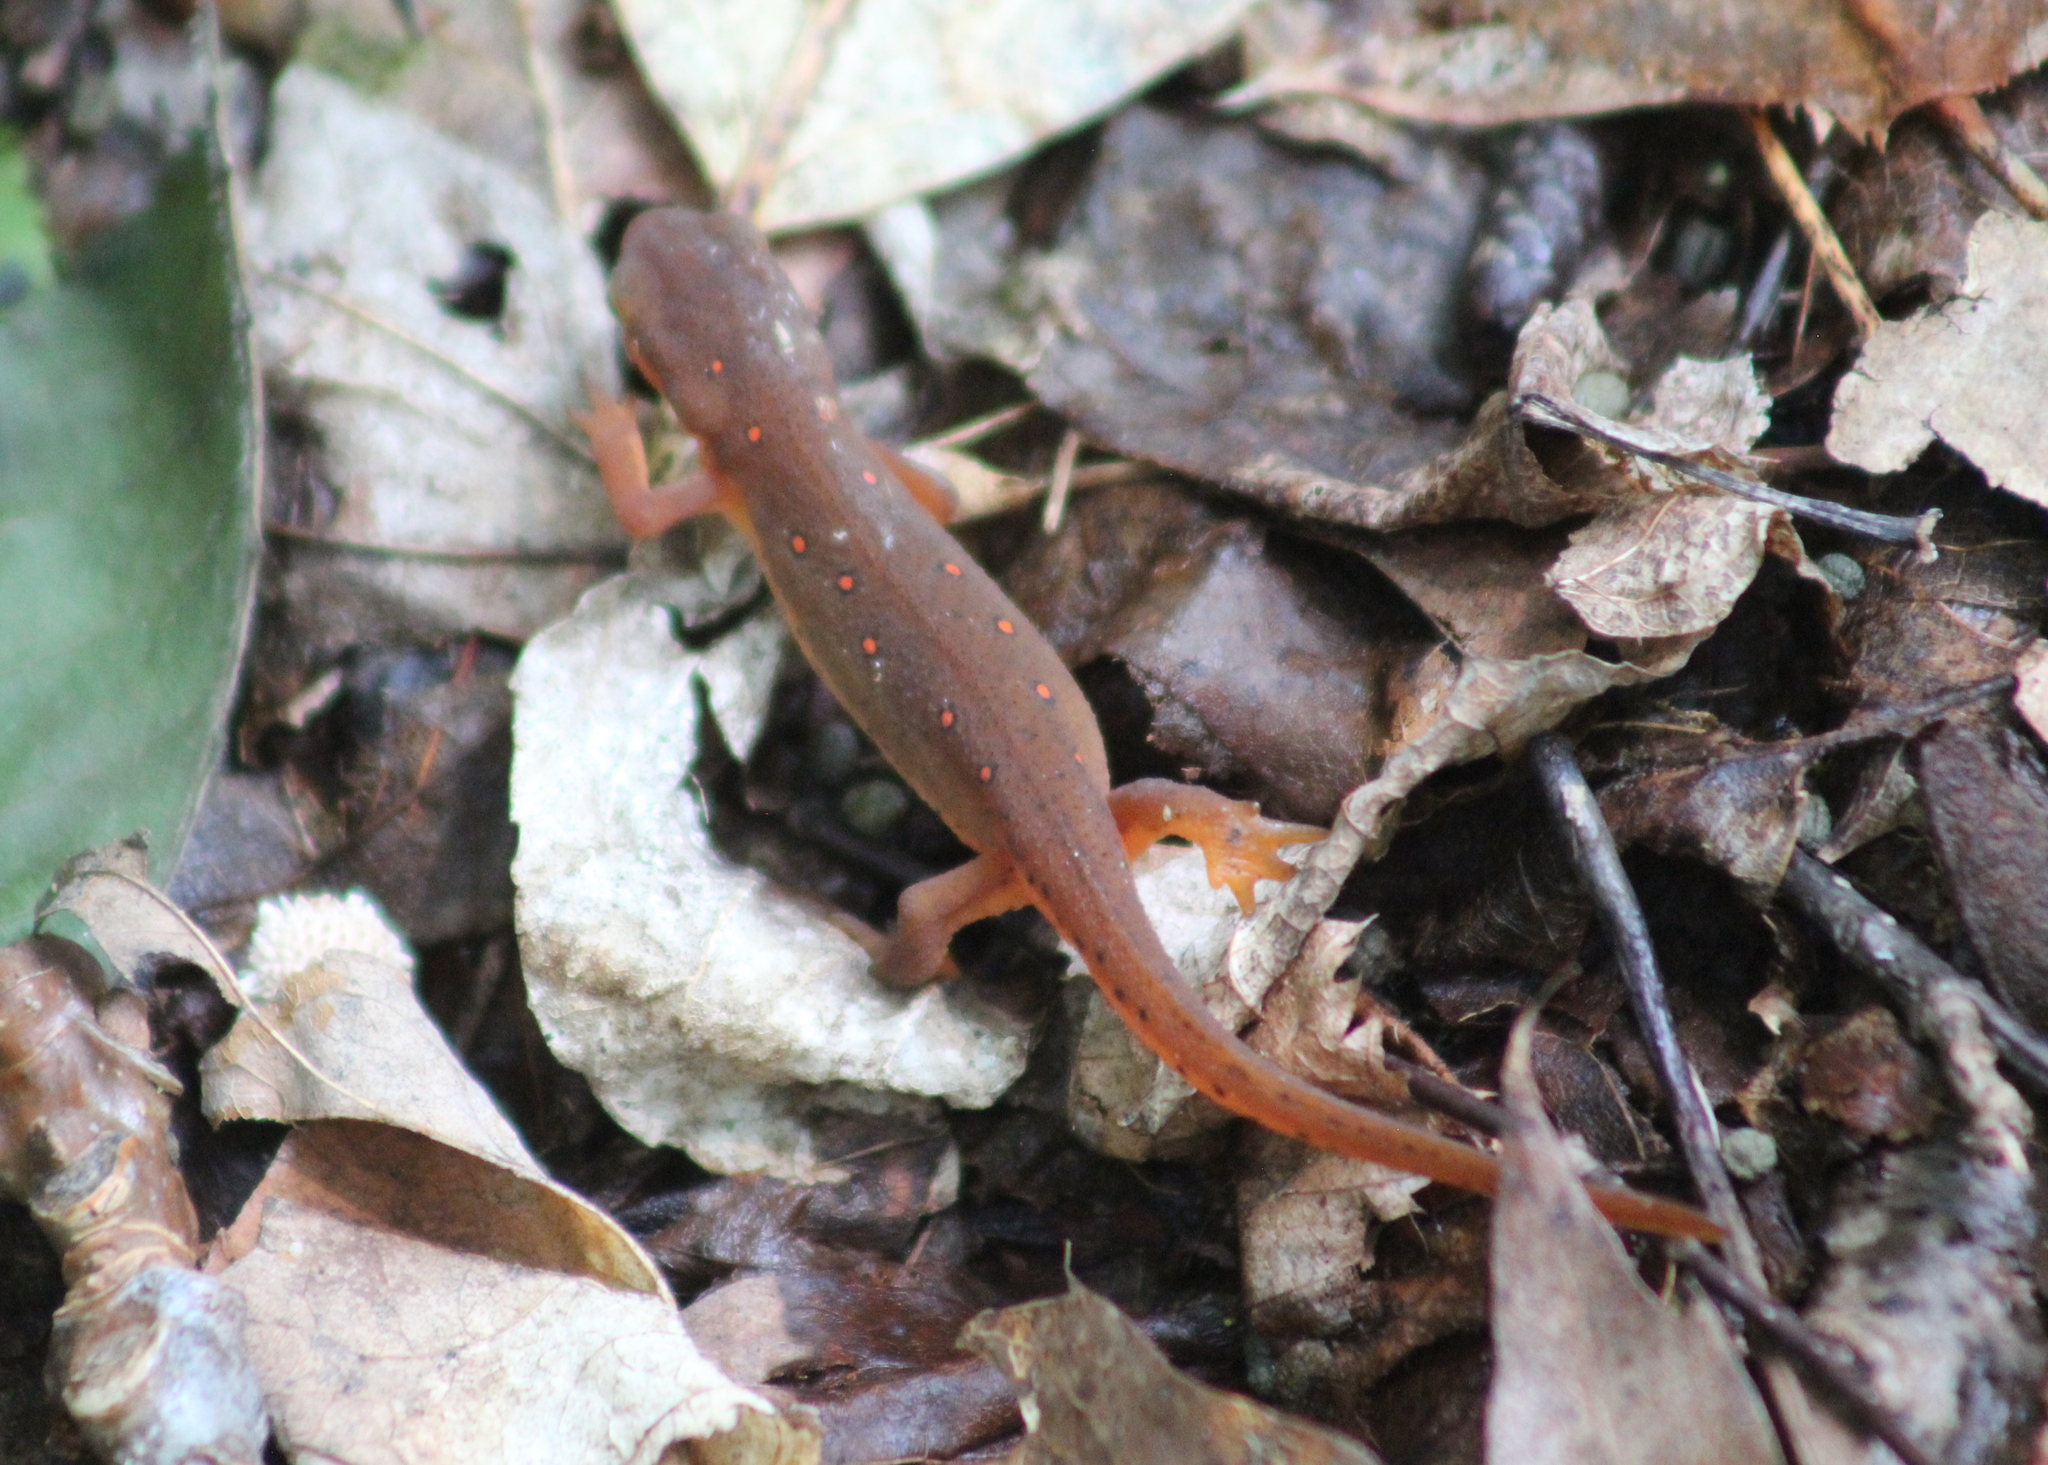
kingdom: Animalia
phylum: Chordata
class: Amphibia
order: Caudata
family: Salamandridae
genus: Notophthalmus
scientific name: Notophthalmus viridescens
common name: Eastern newt
